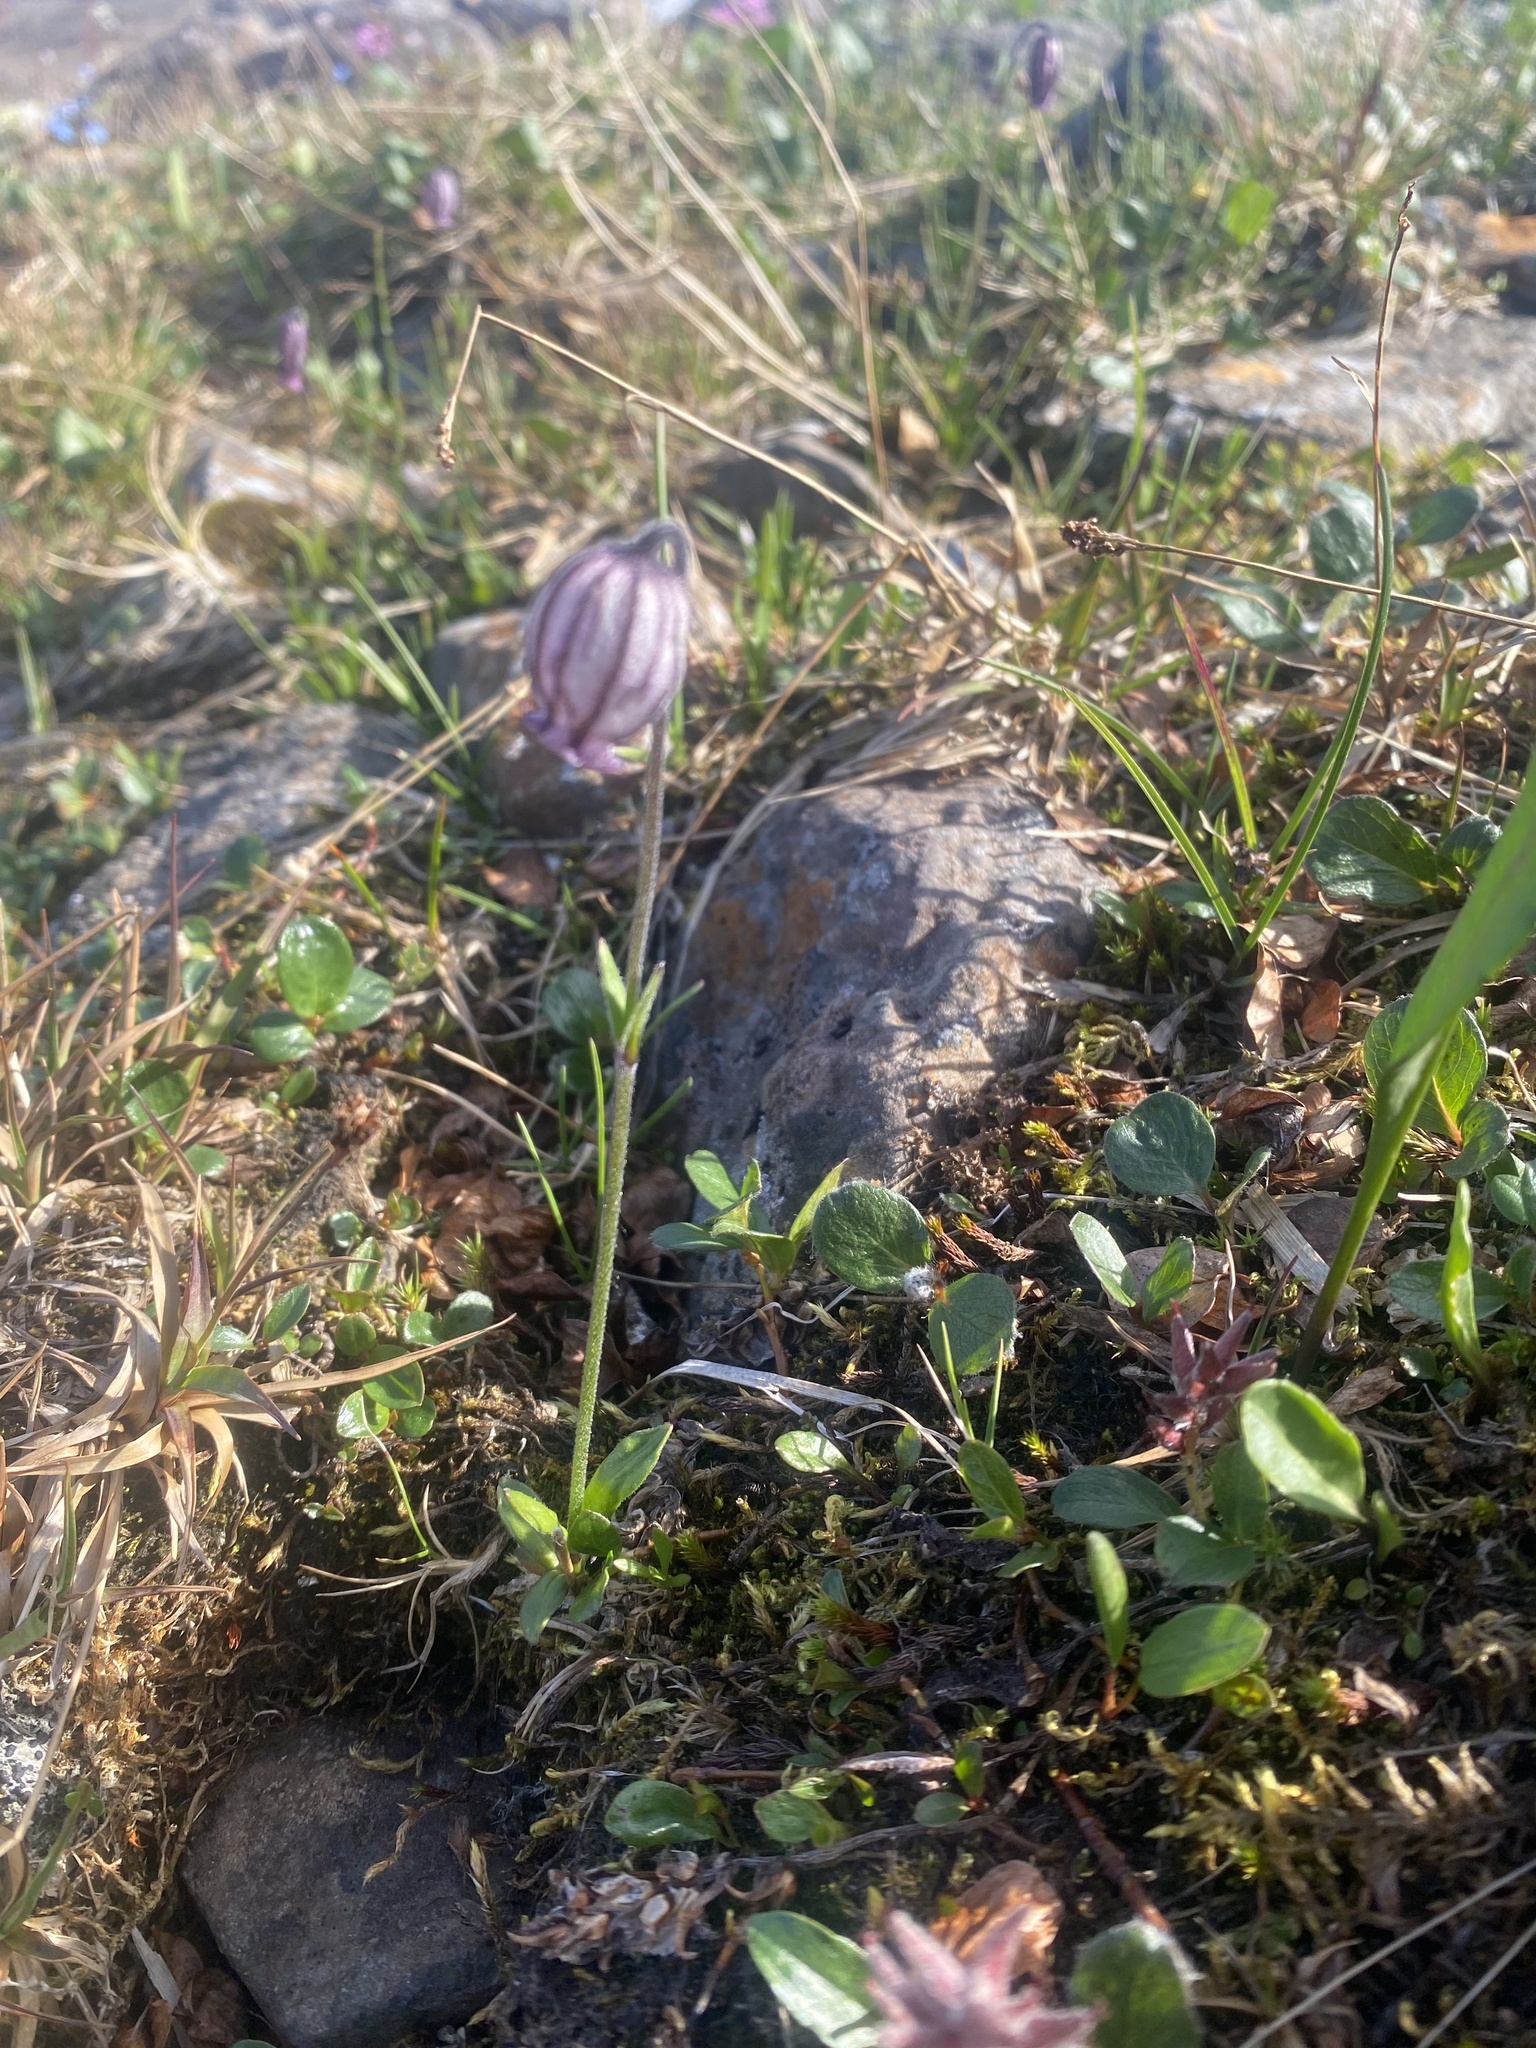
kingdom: Plantae
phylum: Tracheophyta
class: Magnoliopsida
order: Caryophyllales
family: Caryophyllaceae
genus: Silene
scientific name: Silene wahlbergella
